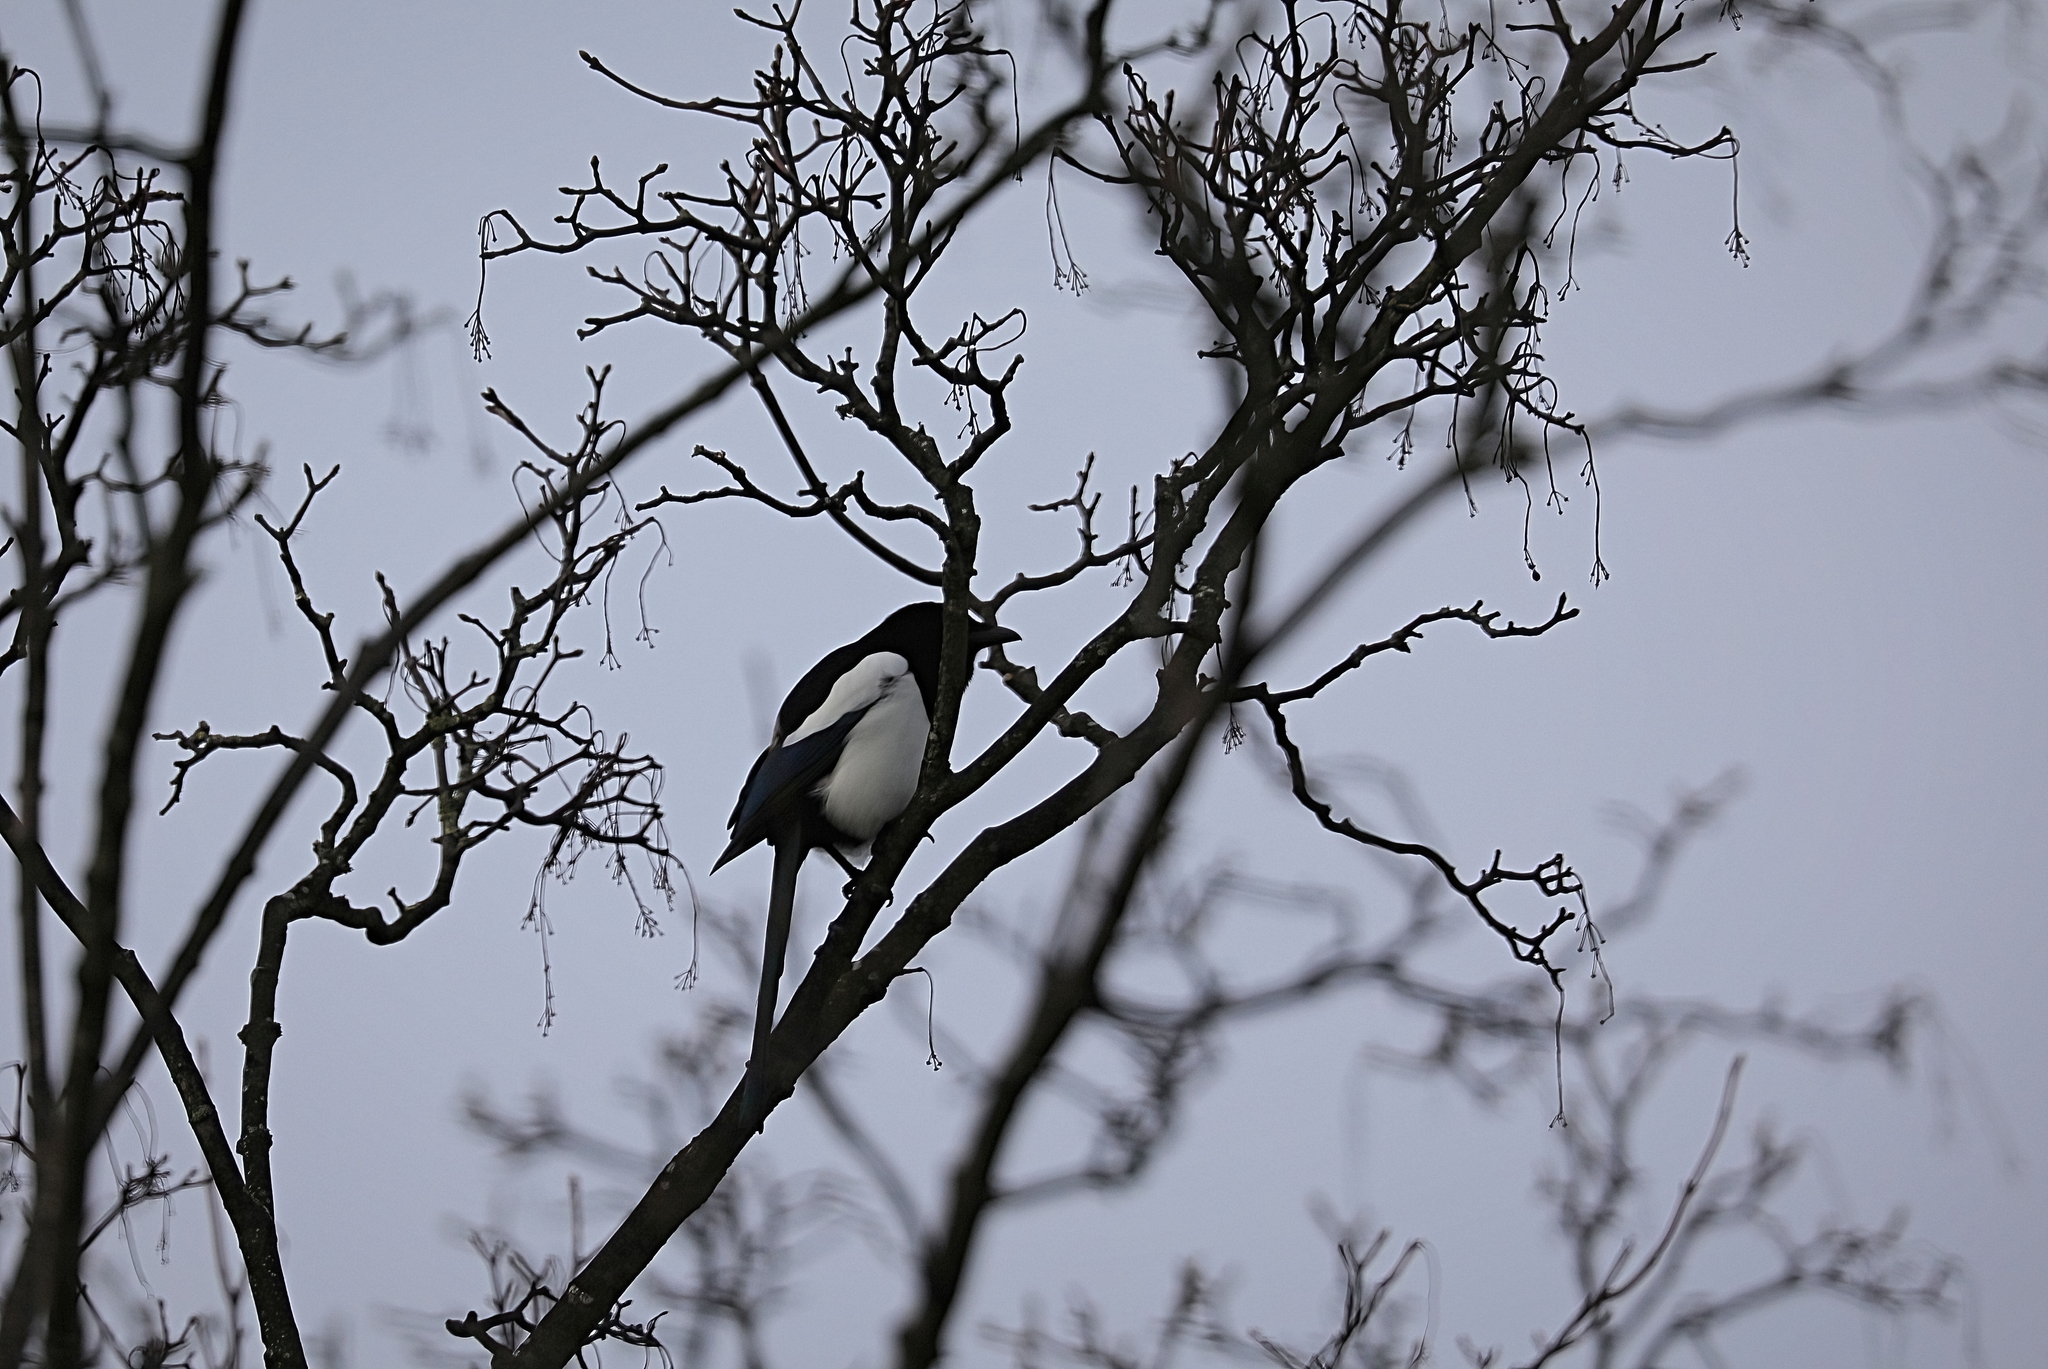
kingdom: Animalia
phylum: Chordata
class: Aves
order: Passeriformes
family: Corvidae
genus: Pica
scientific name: Pica pica
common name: Eurasian magpie
